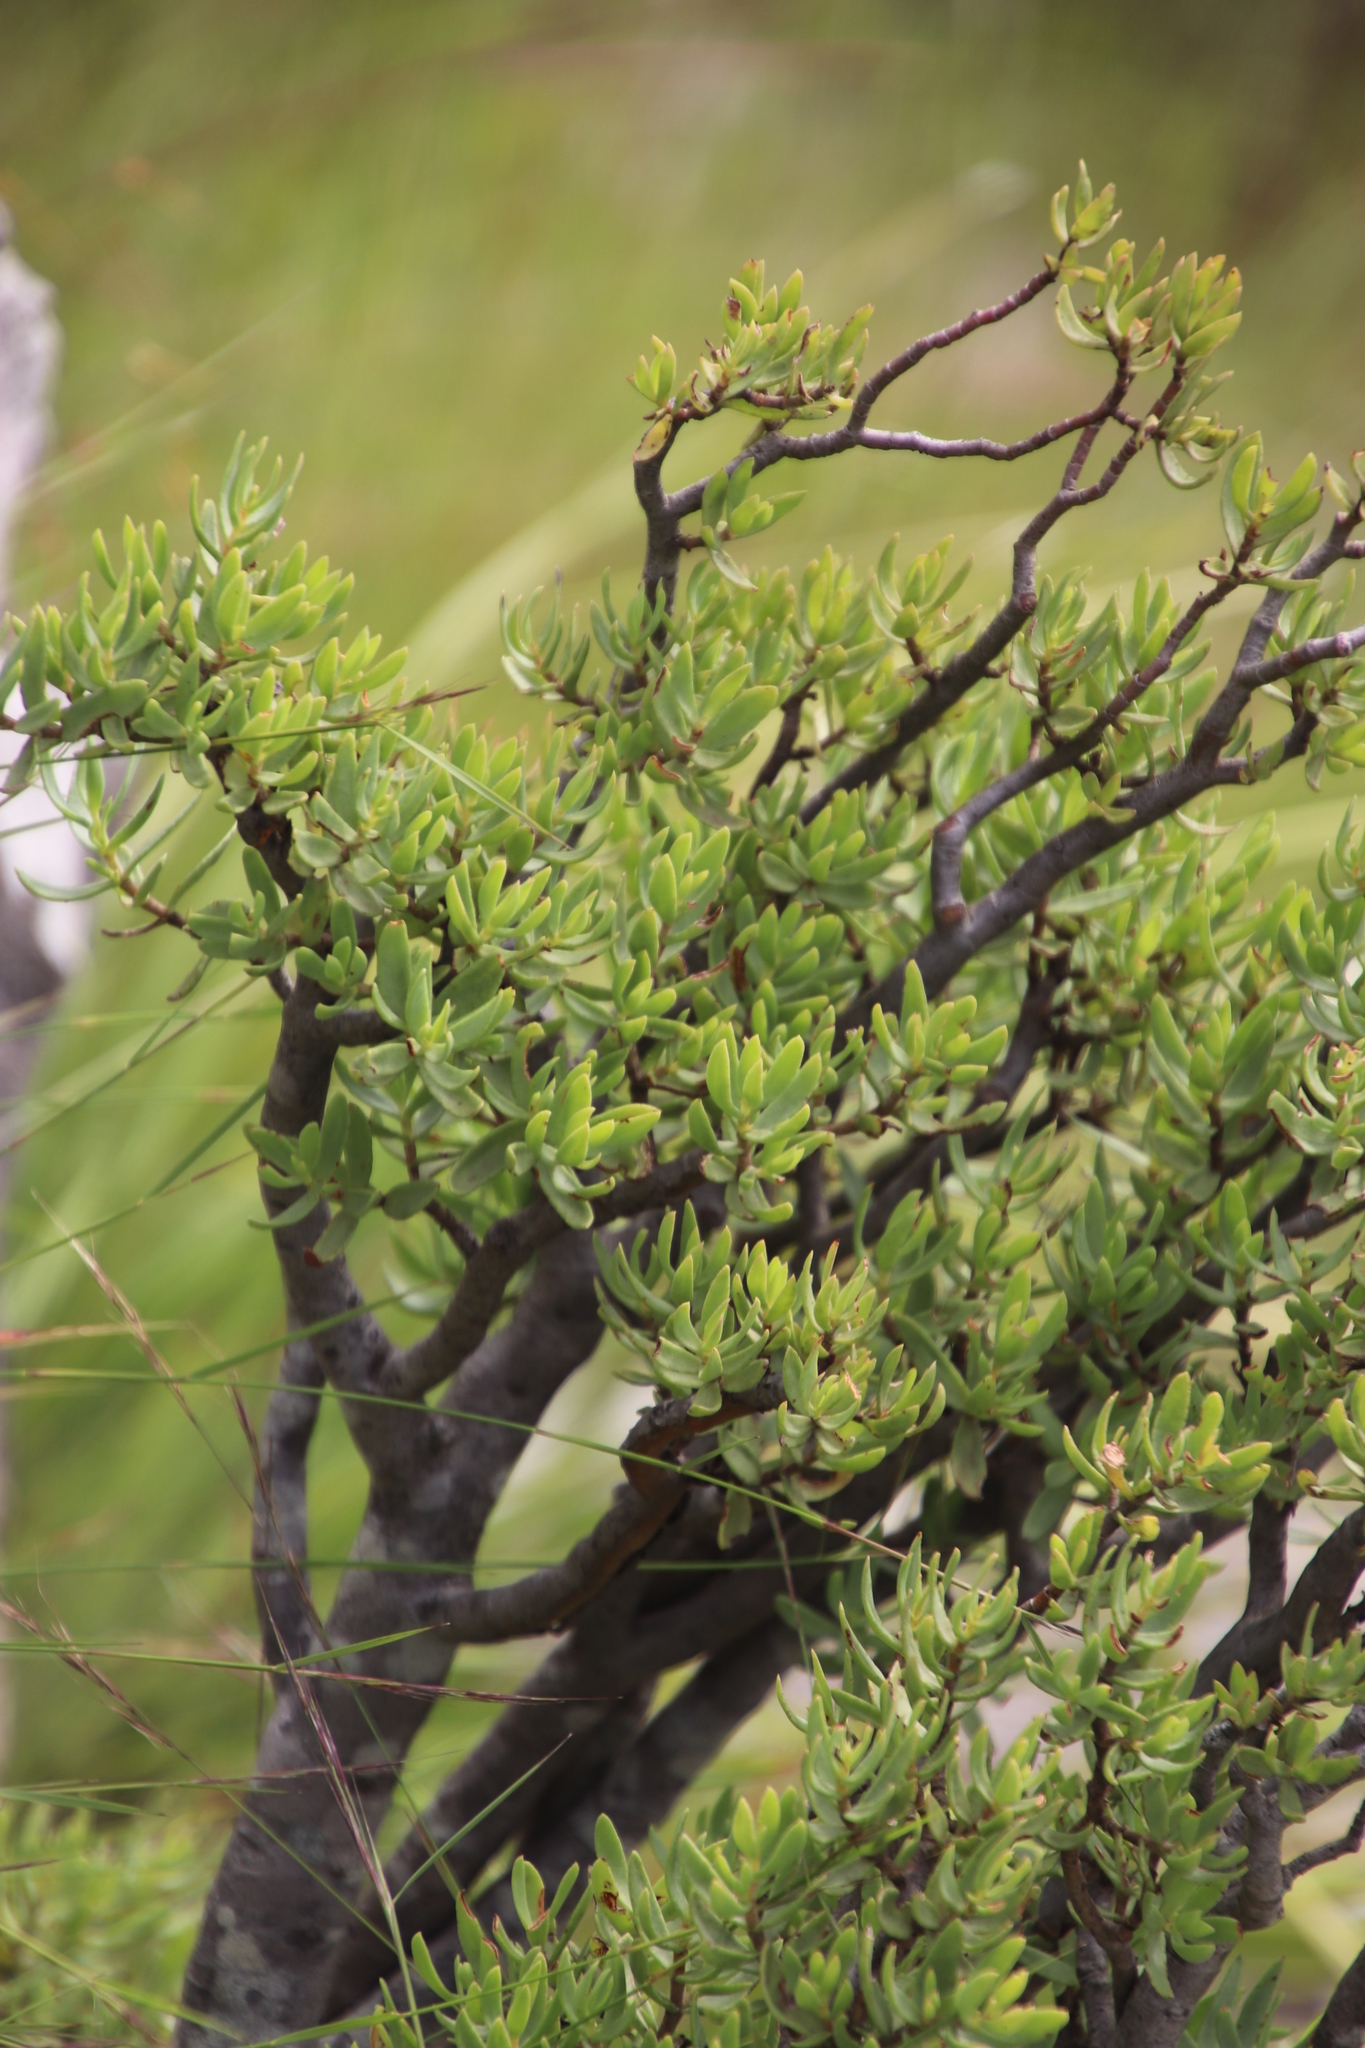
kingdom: Plantae
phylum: Tracheophyta
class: Magnoliopsida
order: Saxifragales
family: Crassulaceae
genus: Crassula
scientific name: Crassula sarcocaulis
